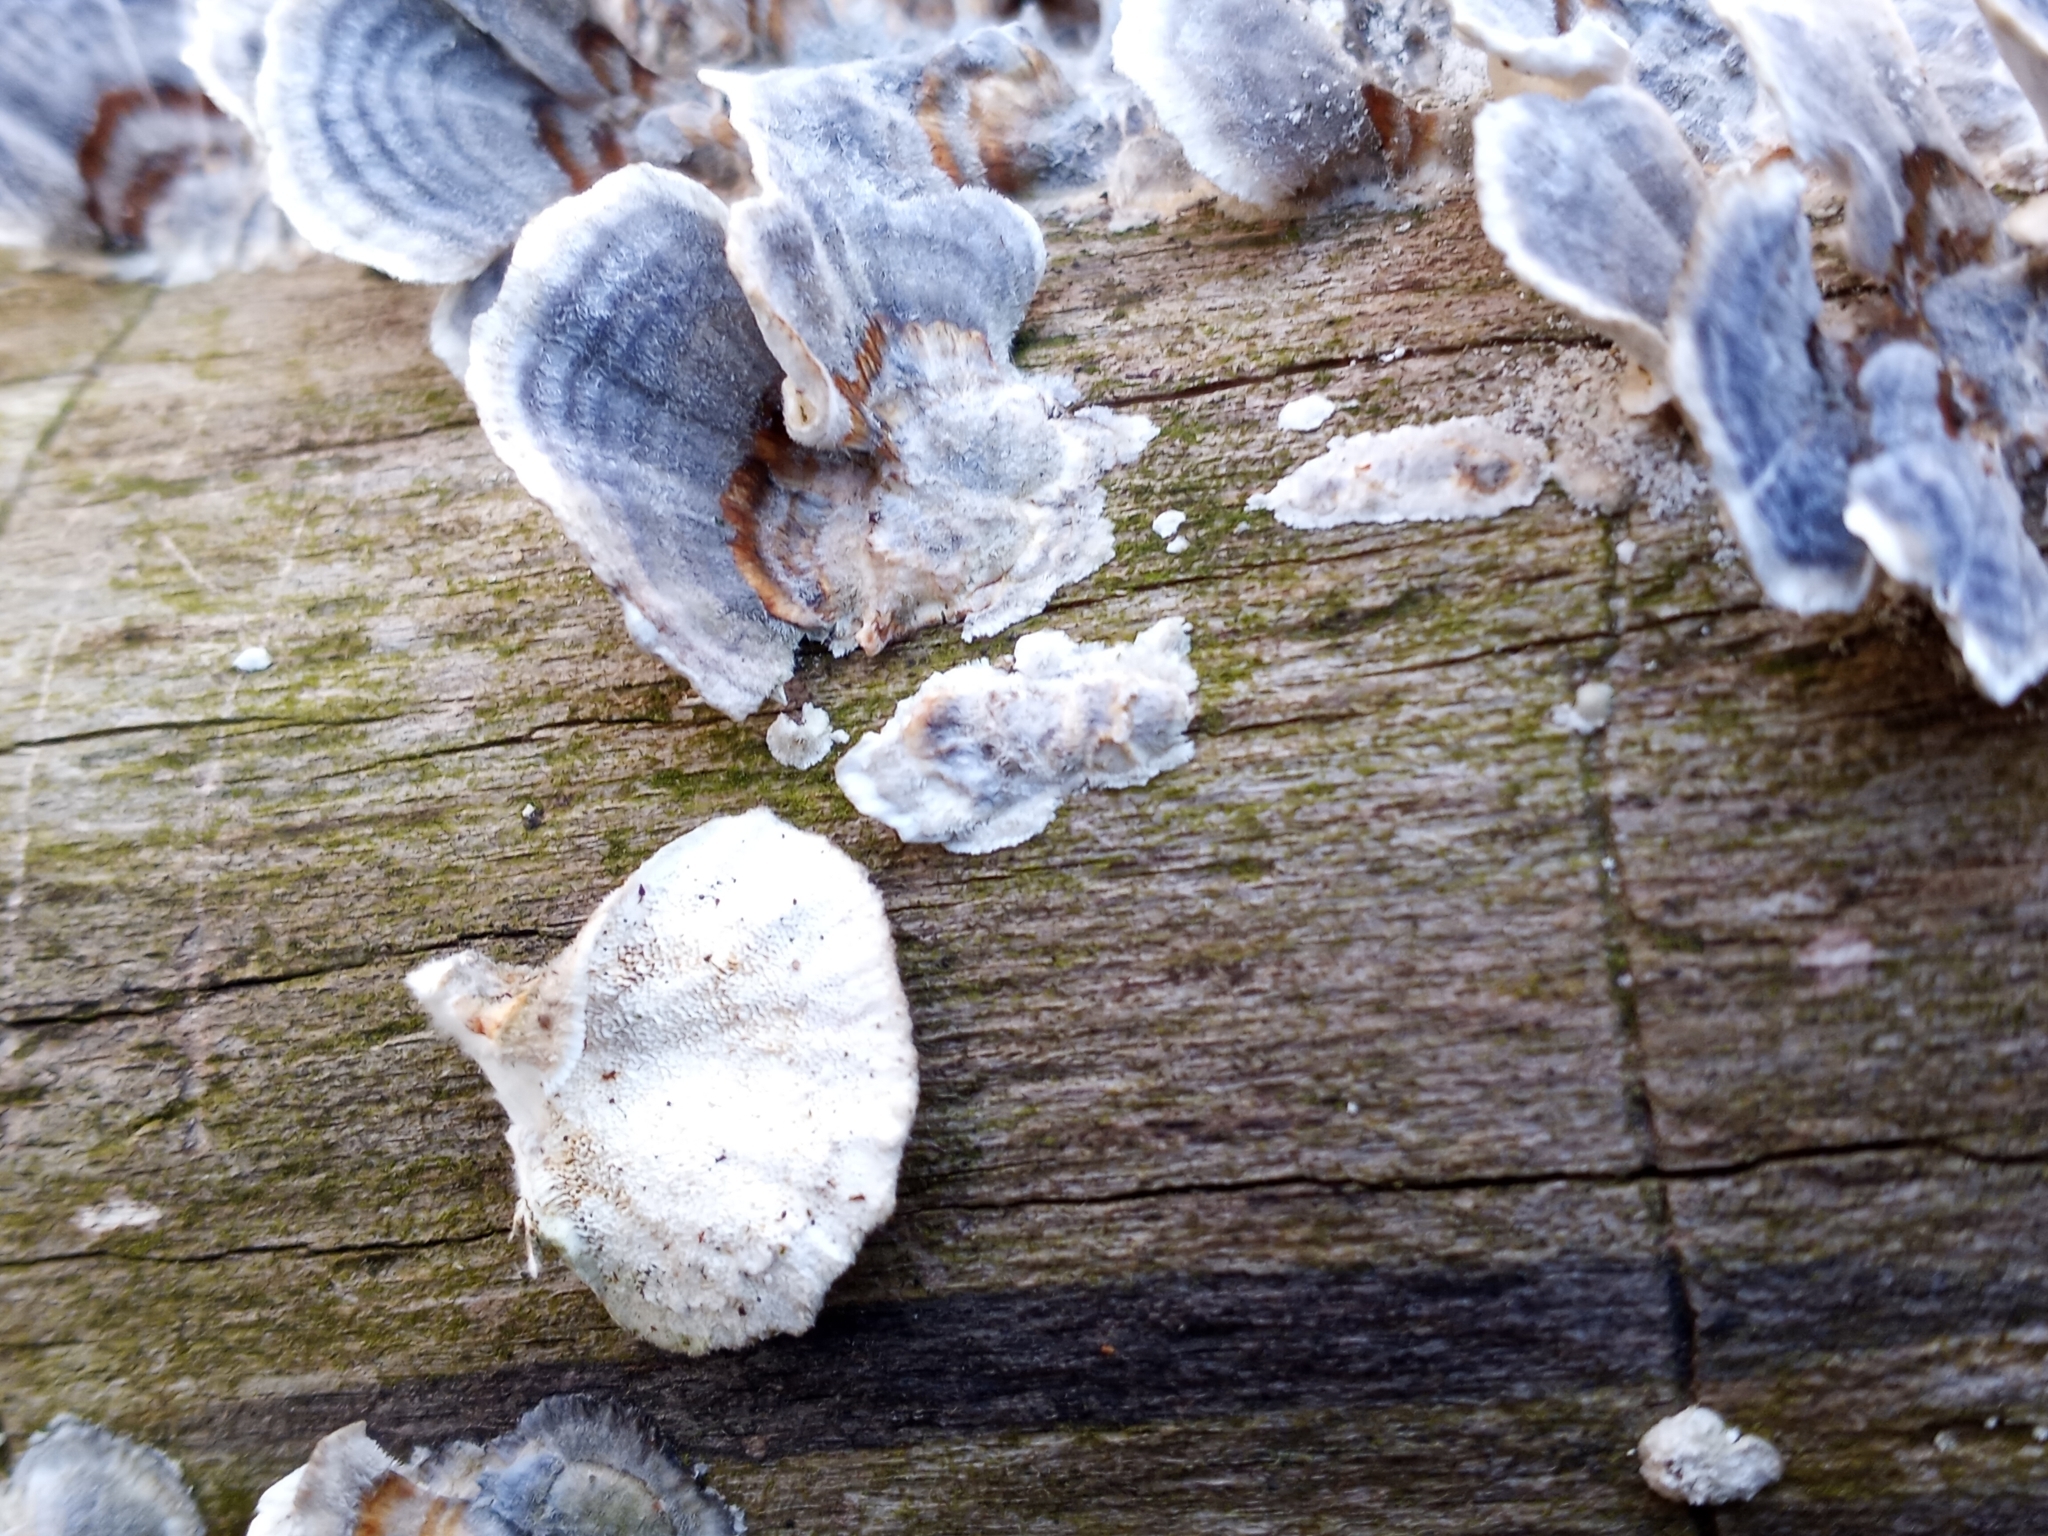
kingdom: Fungi
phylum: Basidiomycota
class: Agaricomycetes
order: Polyporales
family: Polyporaceae
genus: Trametes
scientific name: Trametes versicolor
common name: Turkeytail
